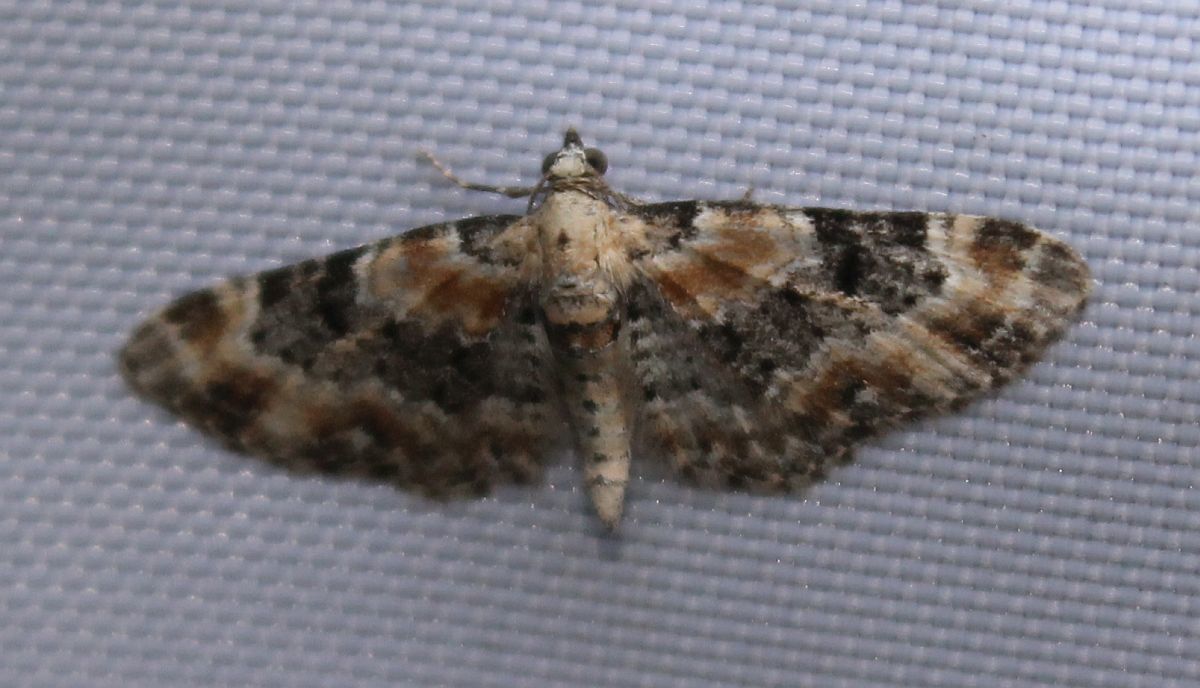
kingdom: Animalia
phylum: Arthropoda
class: Insecta
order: Lepidoptera
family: Geometridae
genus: Eupithecia
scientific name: Eupithecia pulchellata
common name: Foxglove pug
